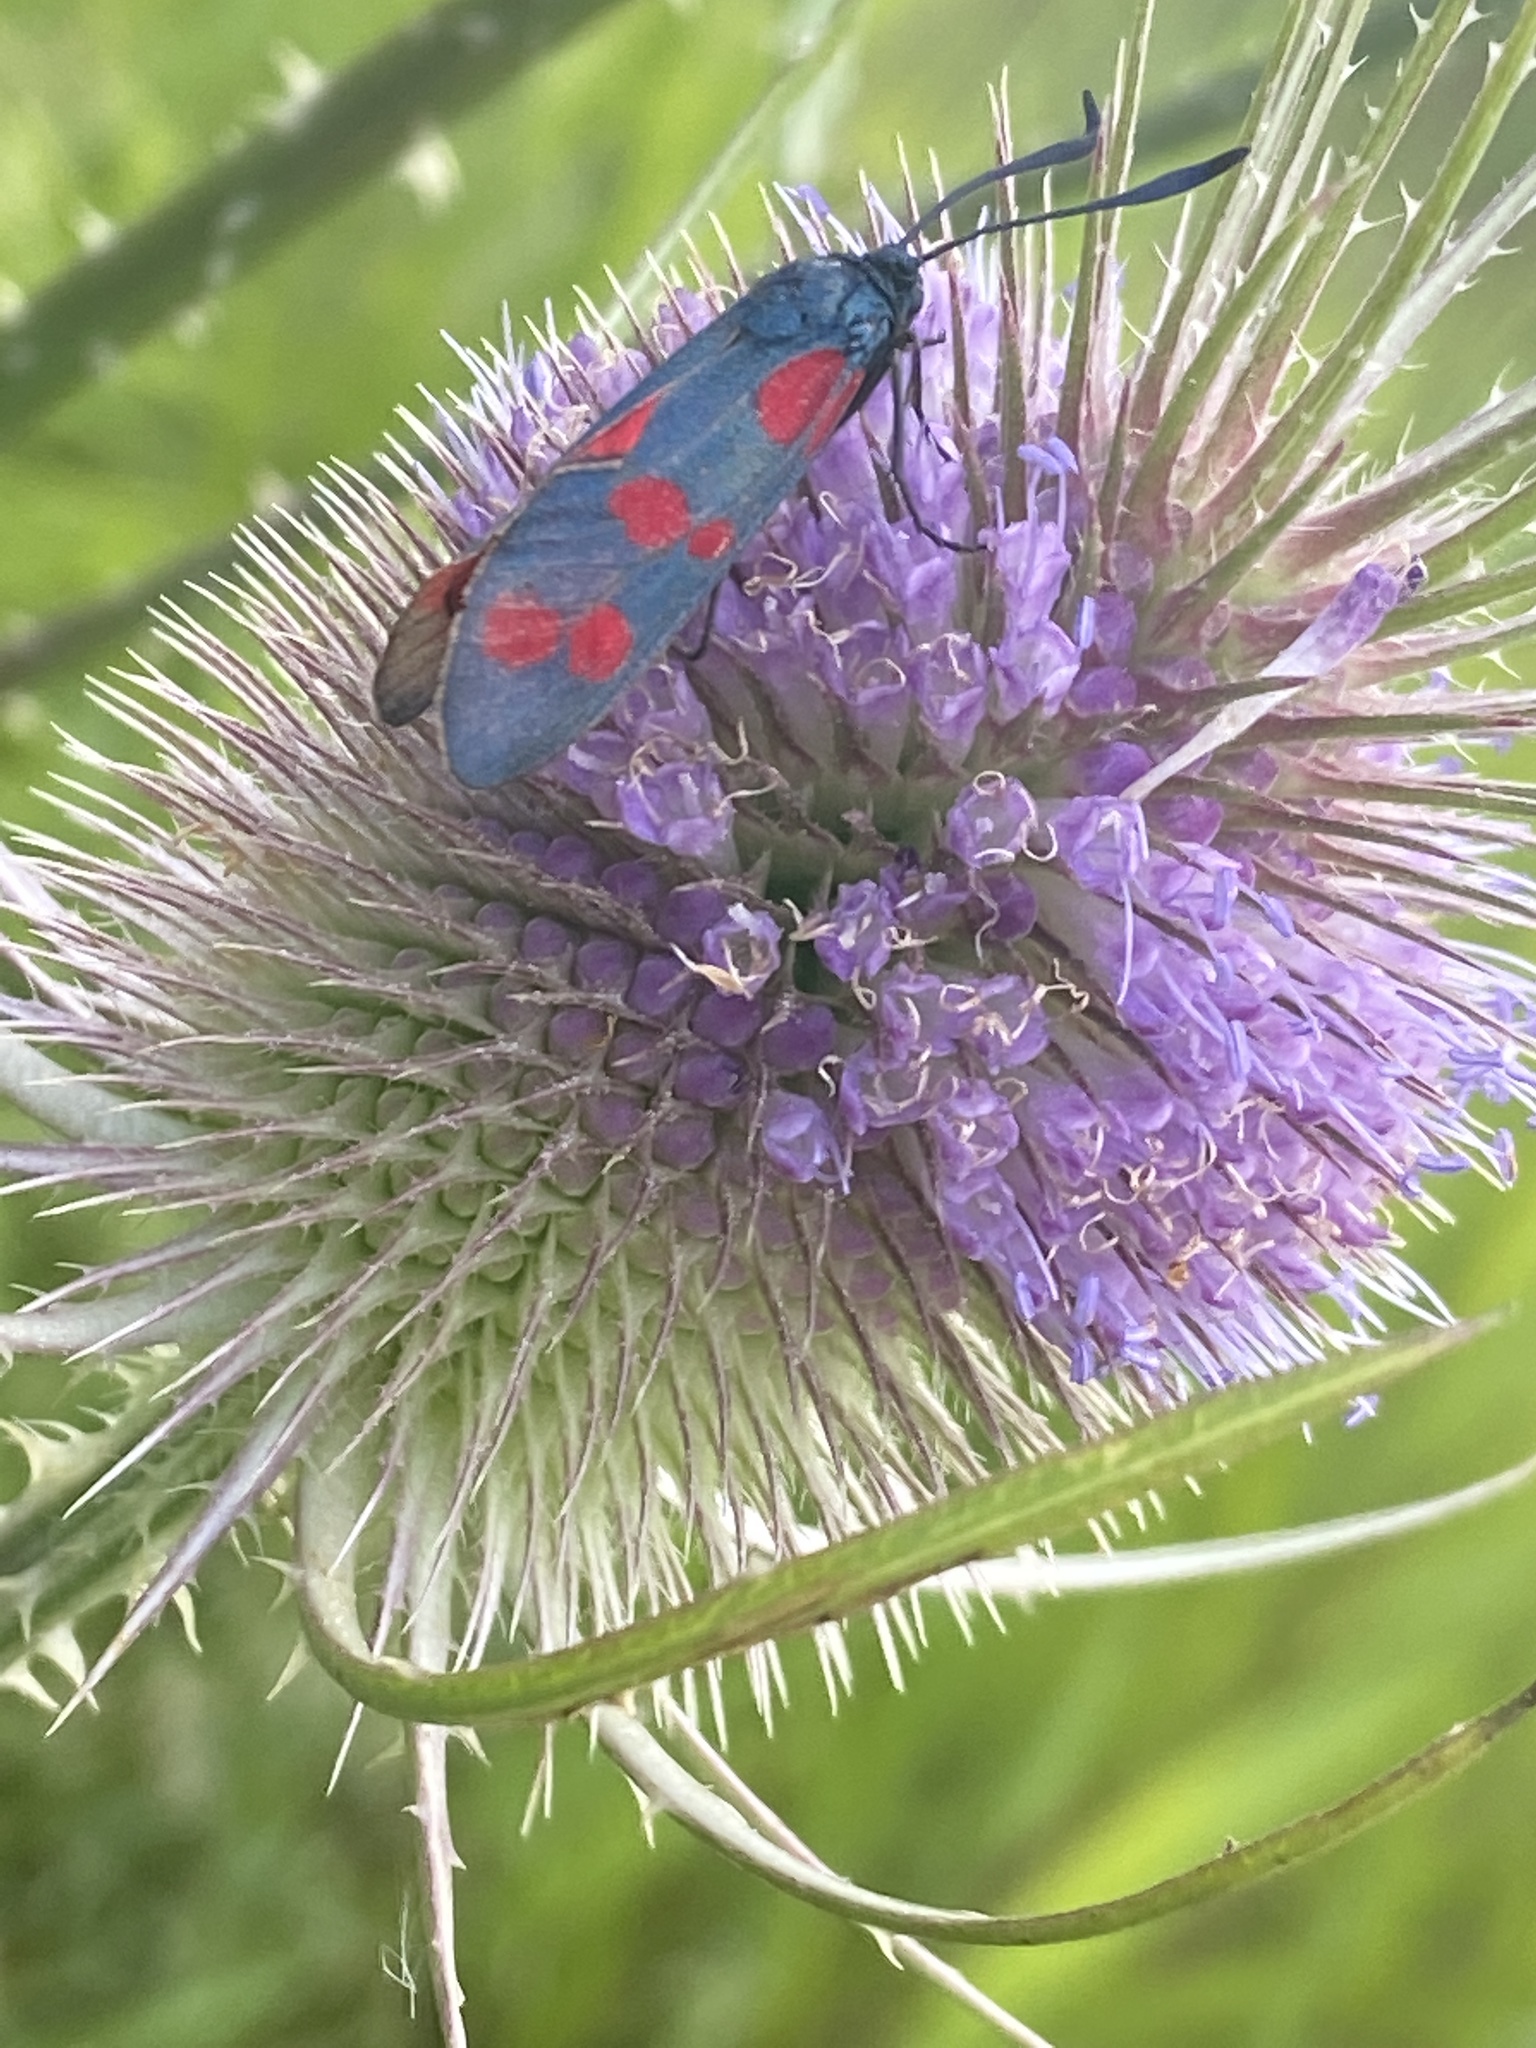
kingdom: Animalia
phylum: Arthropoda
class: Insecta
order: Lepidoptera
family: Zygaenidae
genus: Zygaena
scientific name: Zygaena filipendulae
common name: Six-spot burnet
